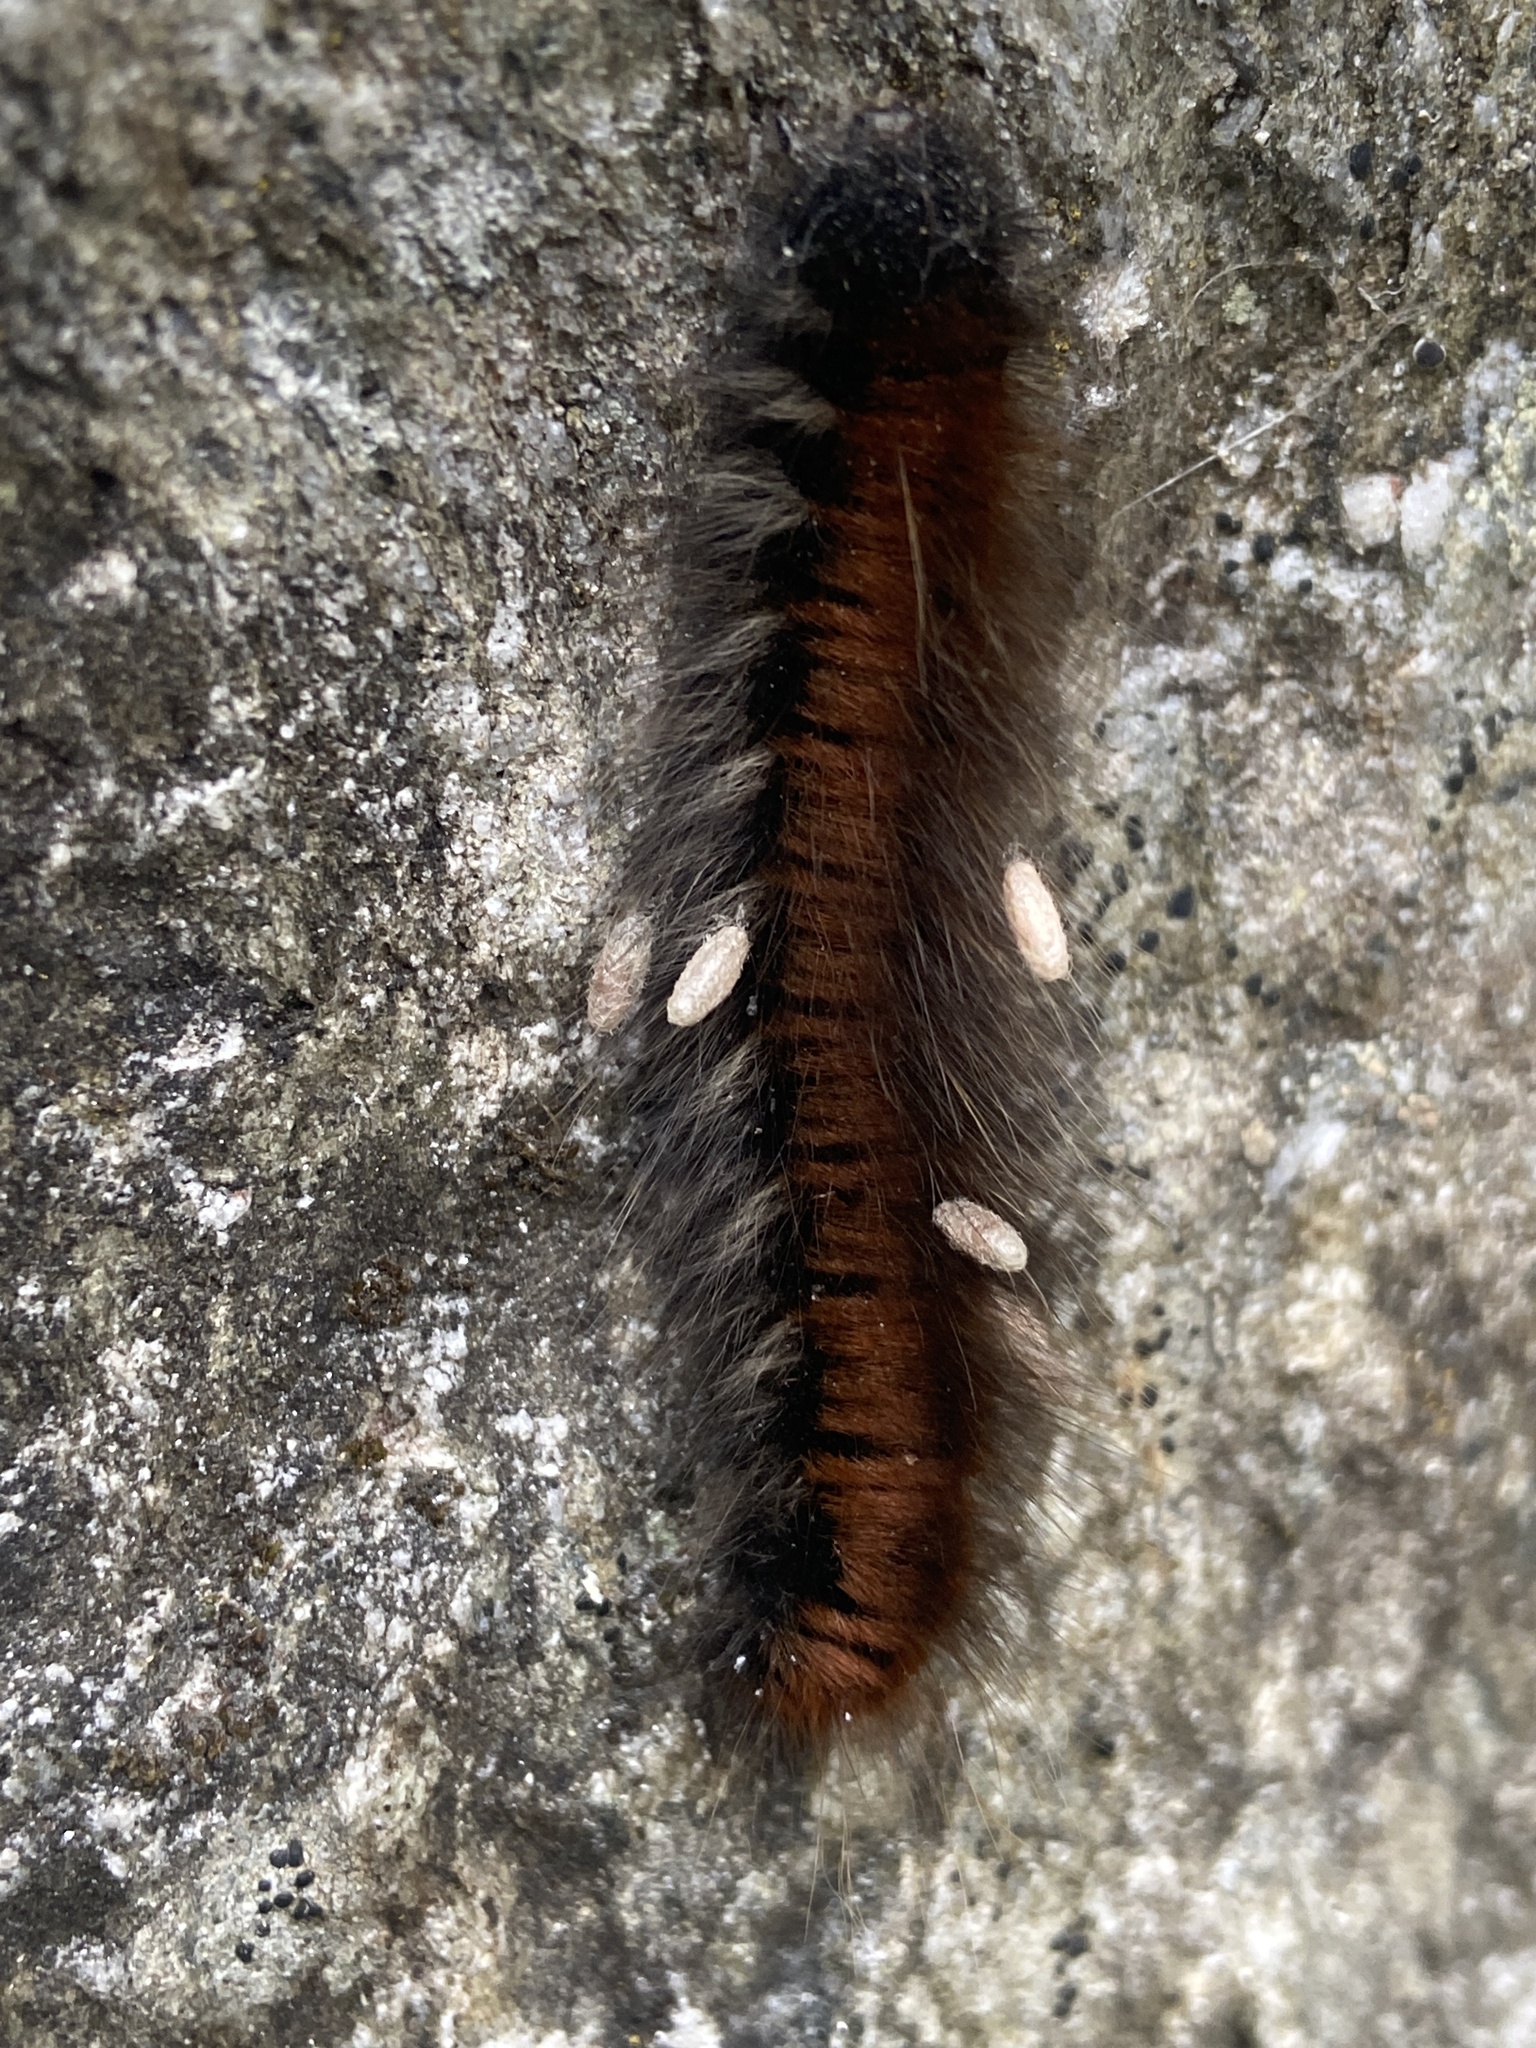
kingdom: Animalia
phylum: Arthropoda
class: Insecta
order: Lepidoptera
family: Lasiocampidae
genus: Macrothylacia
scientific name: Macrothylacia rubi
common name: Fox moth
